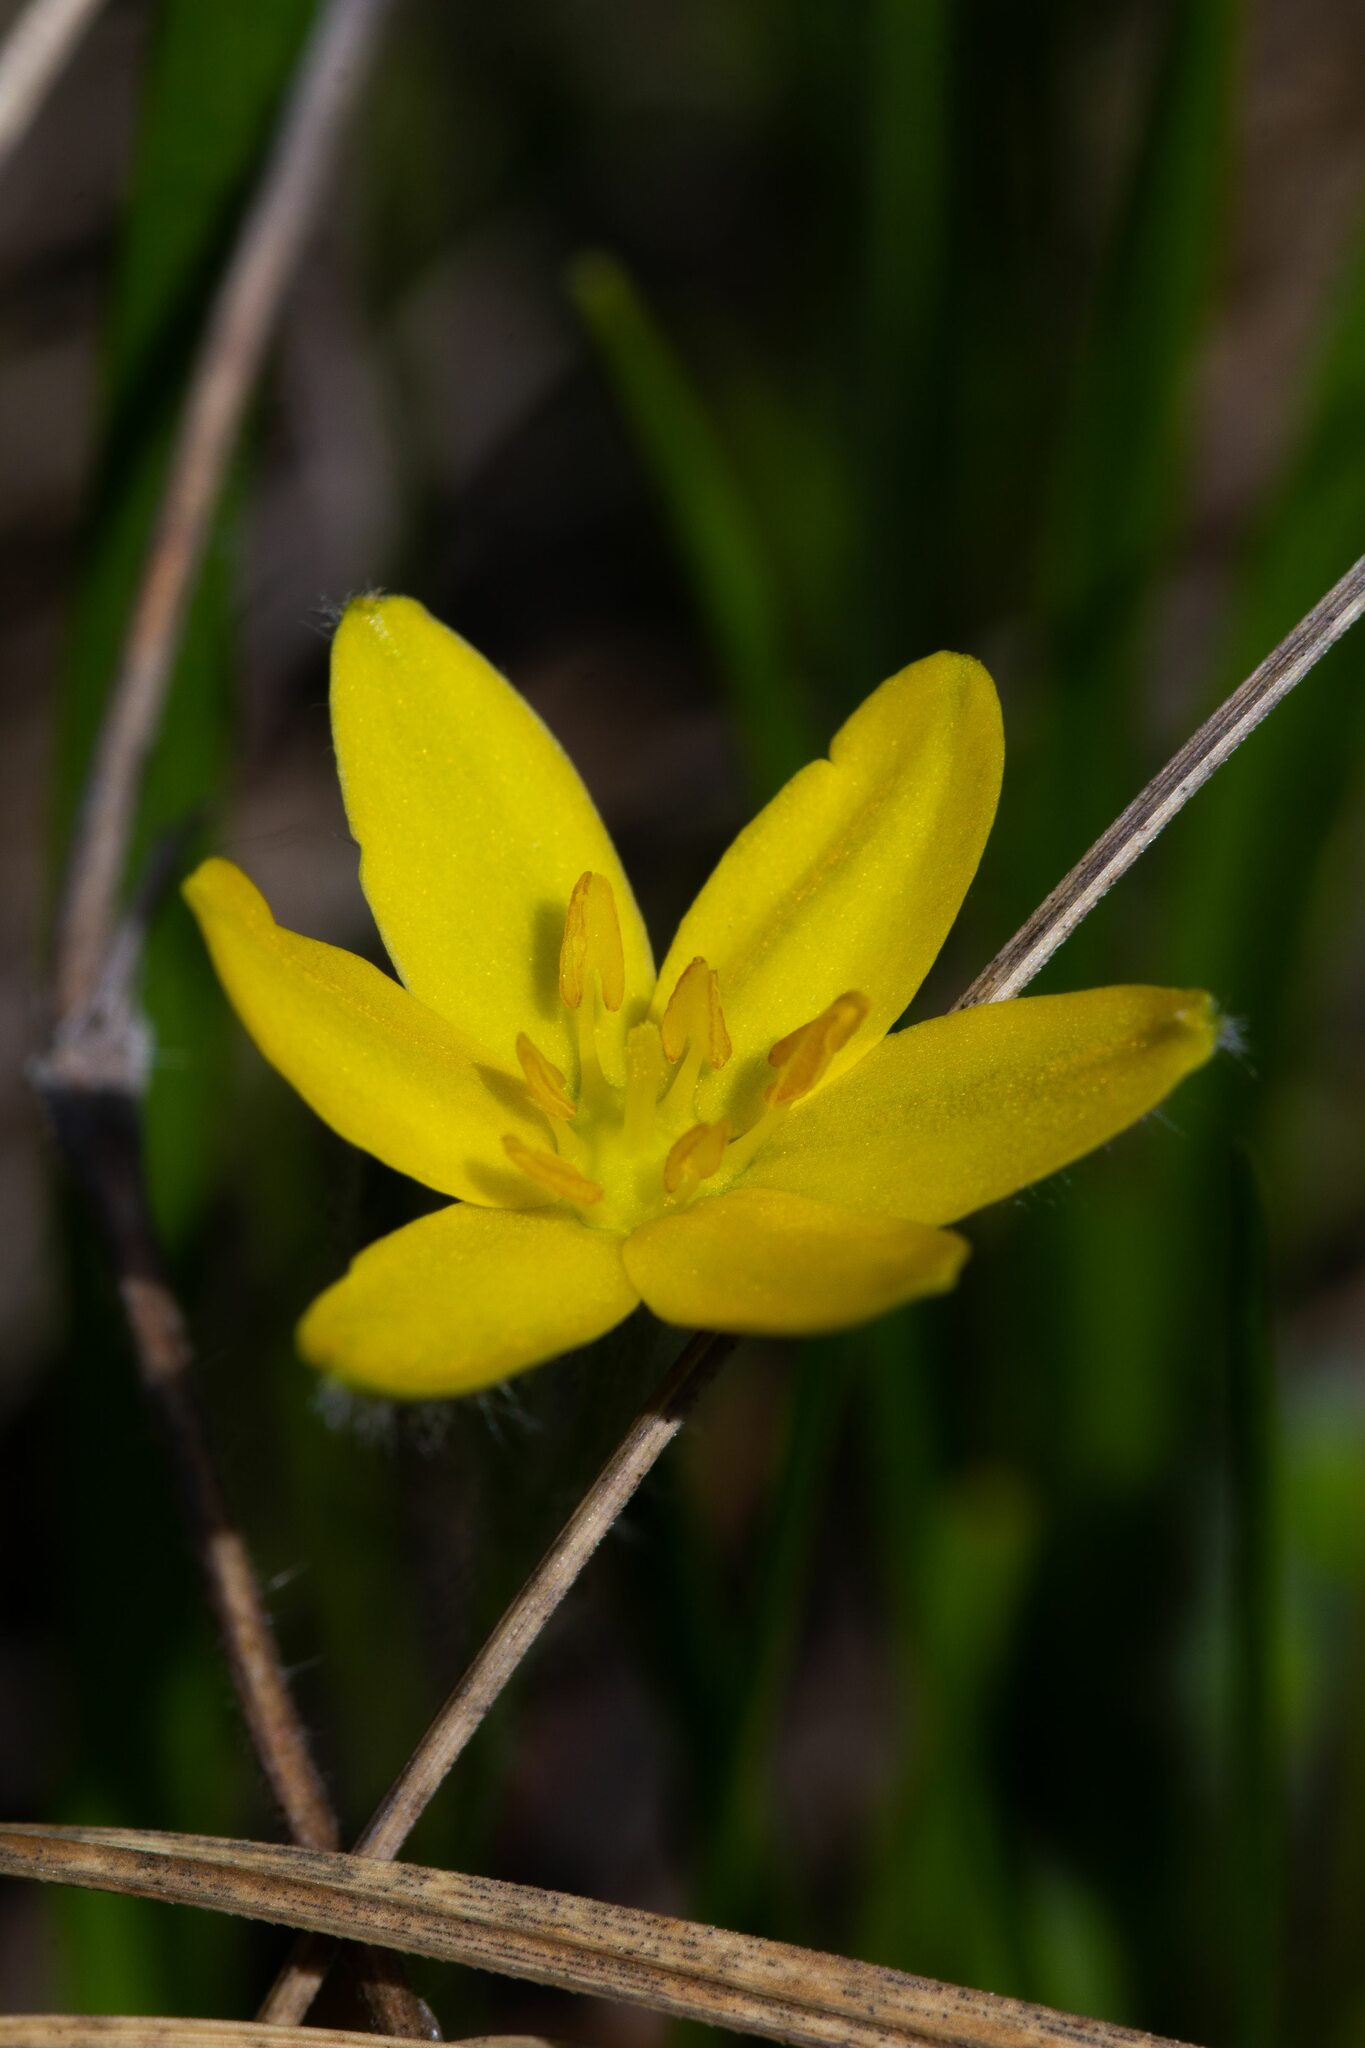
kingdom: Plantae
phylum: Tracheophyta
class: Liliopsida
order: Asparagales
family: Hypoxidaceae
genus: Hypoxis
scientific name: Hypoxis hirsuta
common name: Common goldstar
